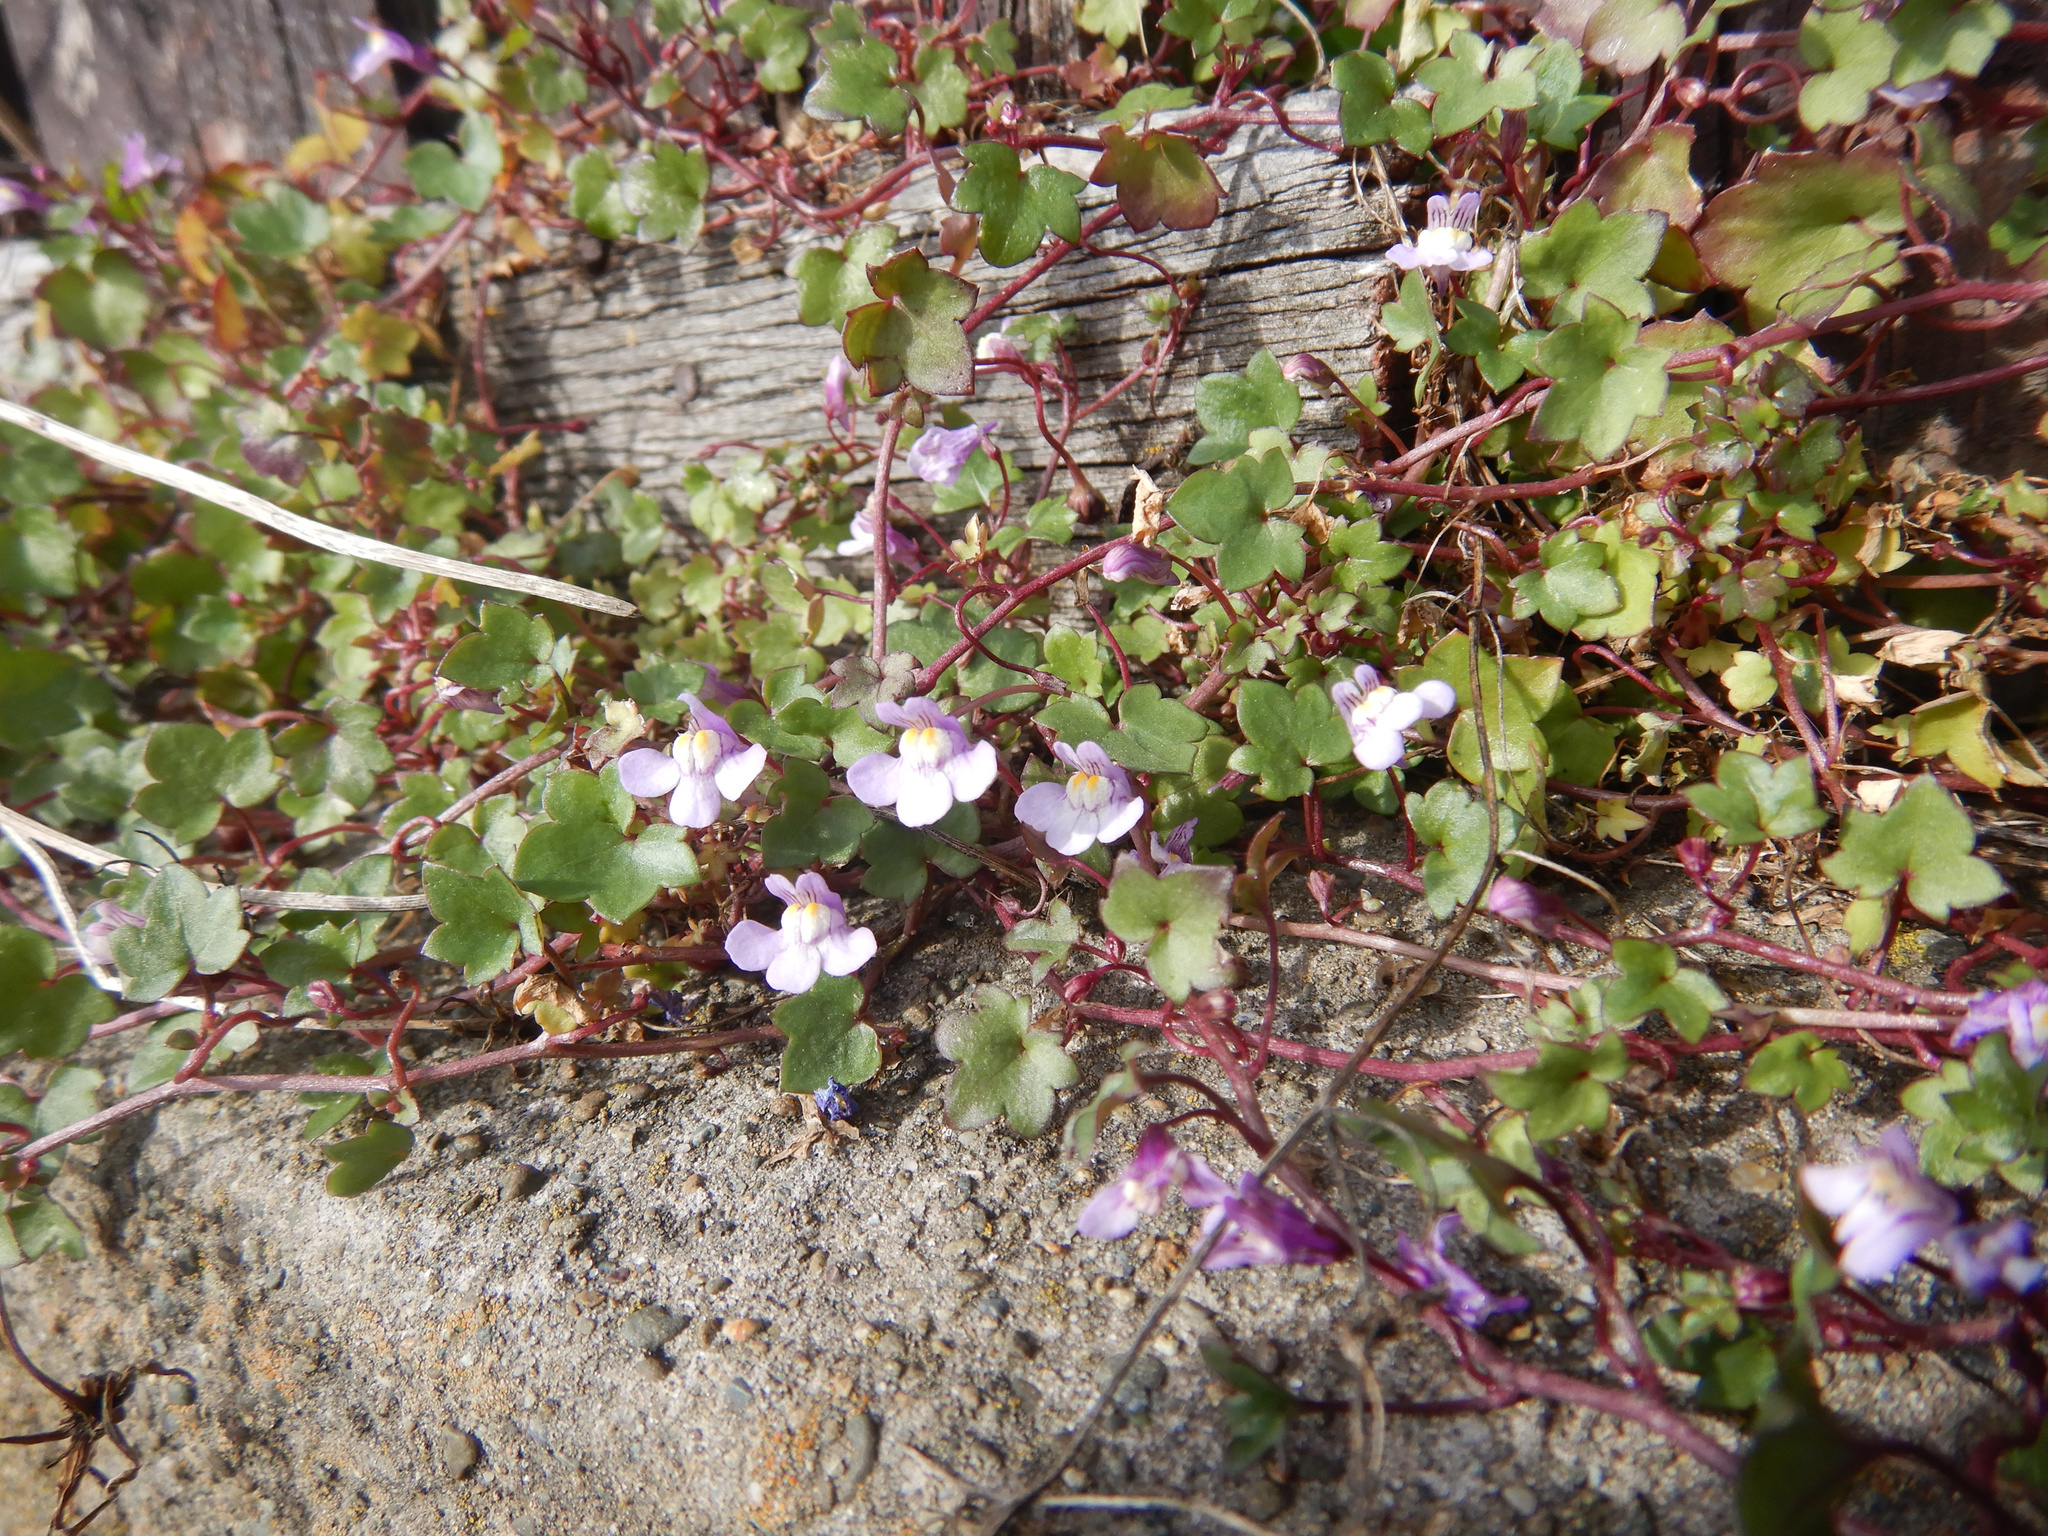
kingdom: Plantae
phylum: Tracheophyta
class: Magnoliopsida
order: Lamiales
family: Plantaginaceae
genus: Cymbalaria
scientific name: Cymbalaria muralis
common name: Ivy-leaved toadflax
